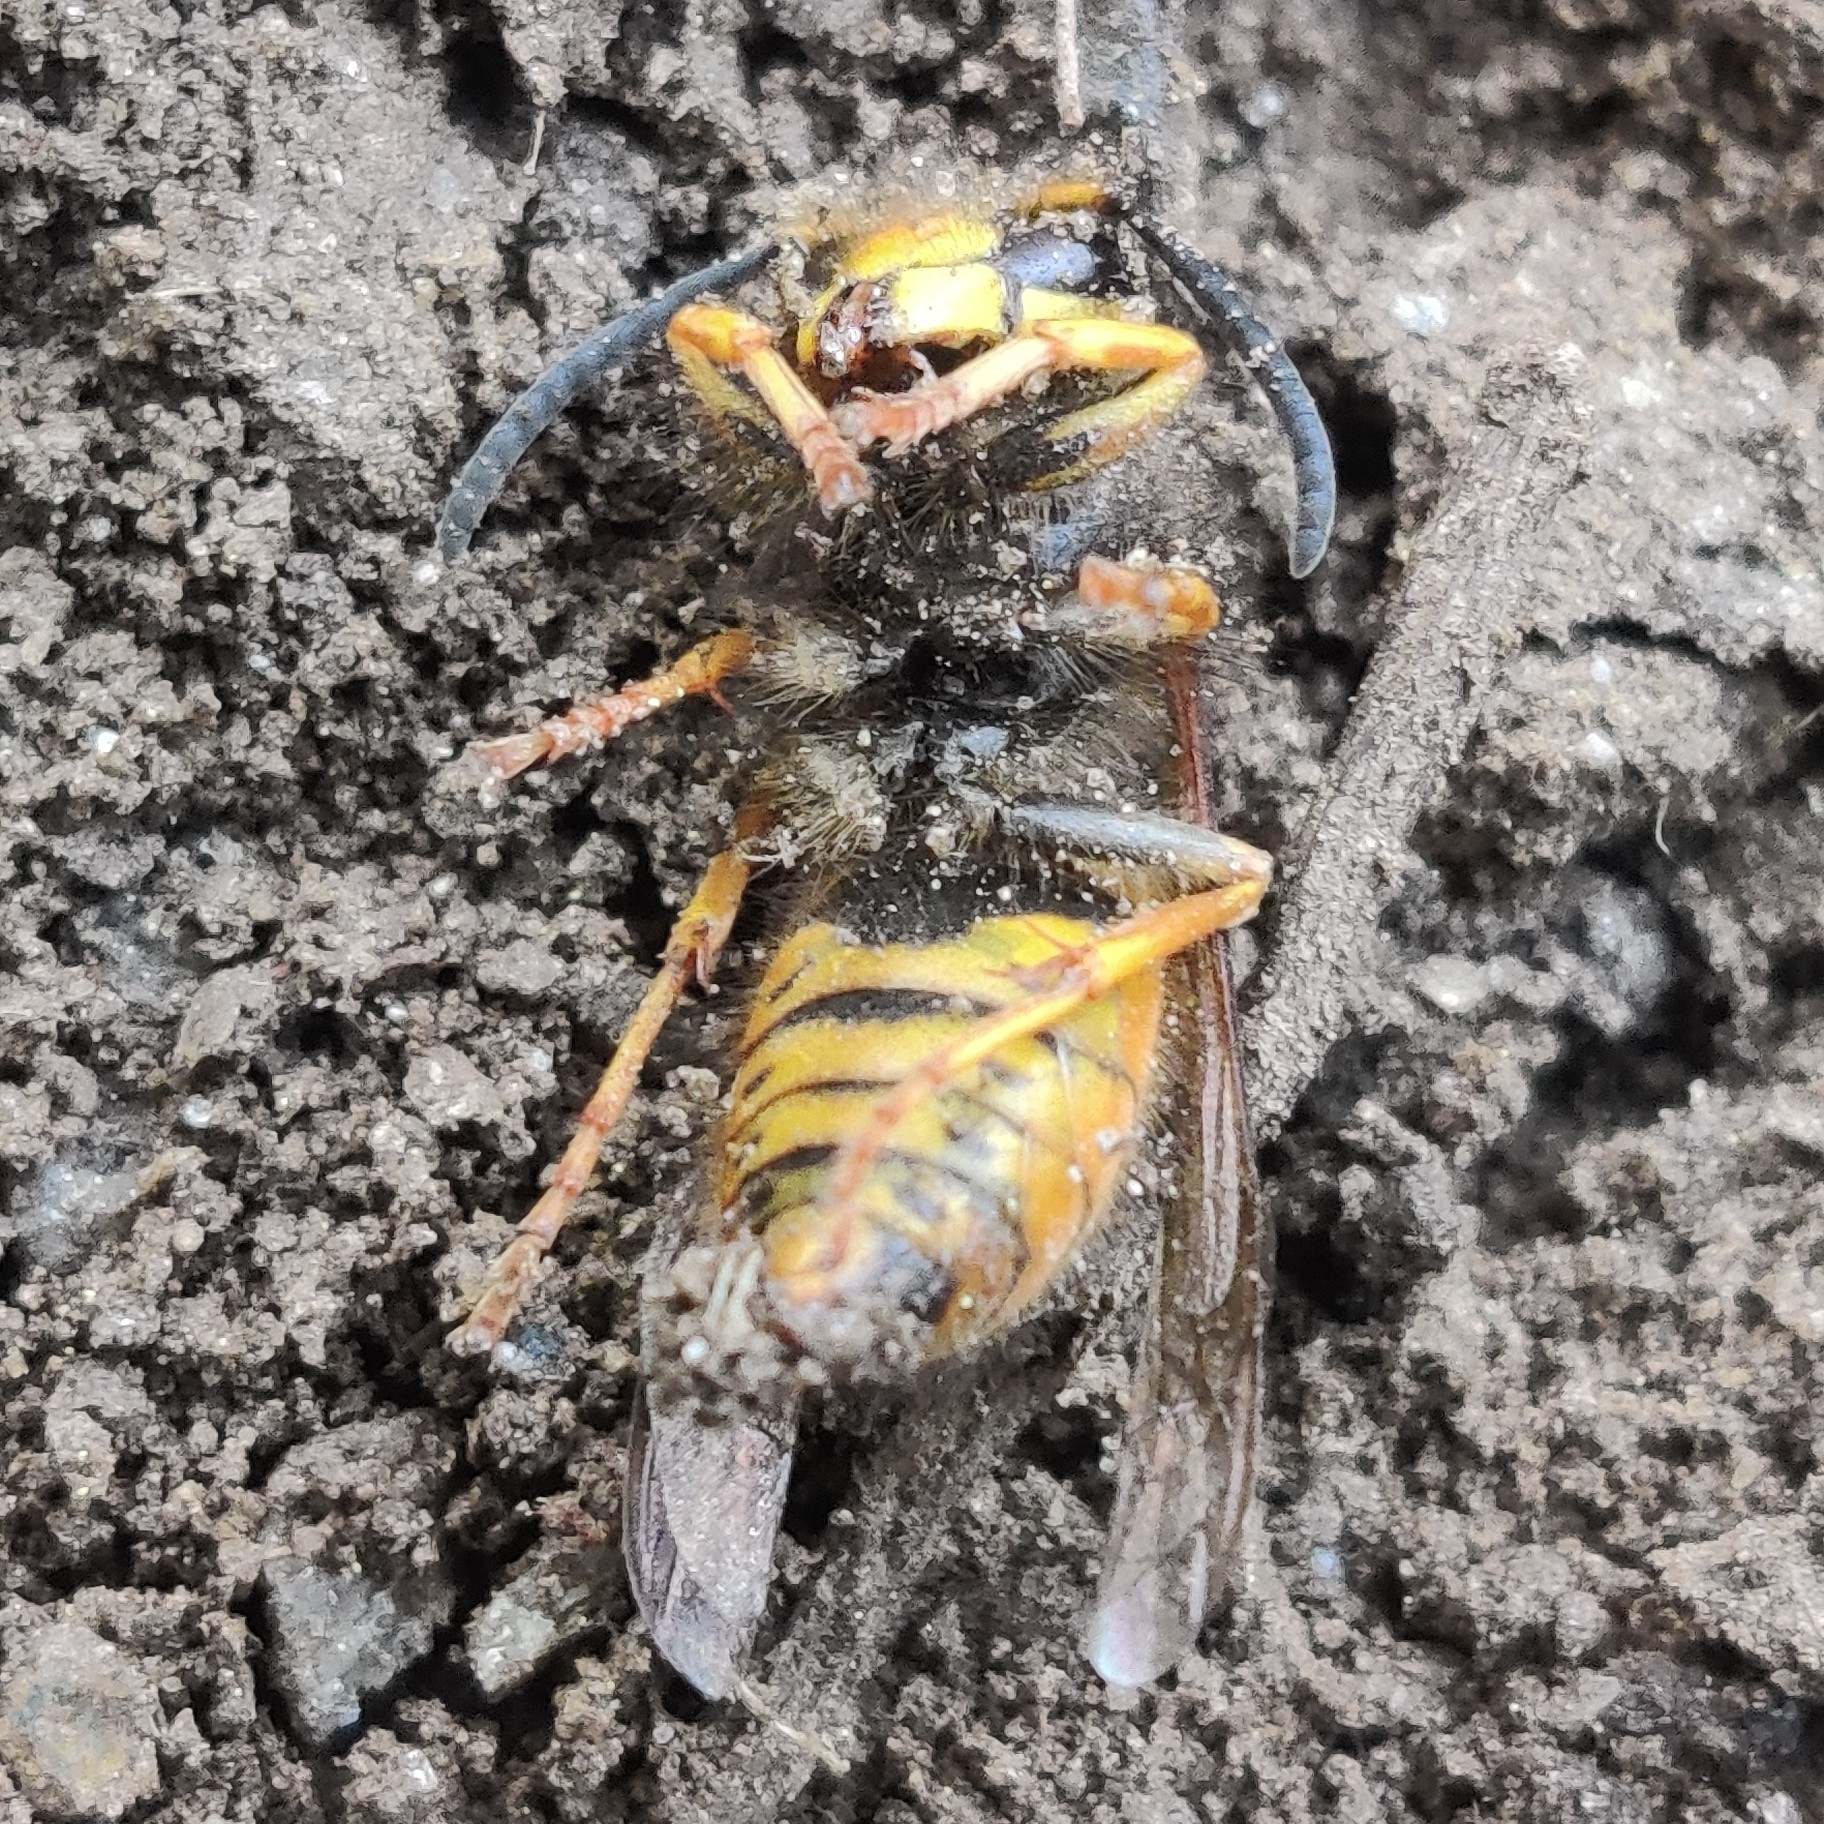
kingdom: Animalia
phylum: Arthropoda
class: Insecta
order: Hymenoptera
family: Vespidae
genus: Vespula
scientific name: Vespula structor
